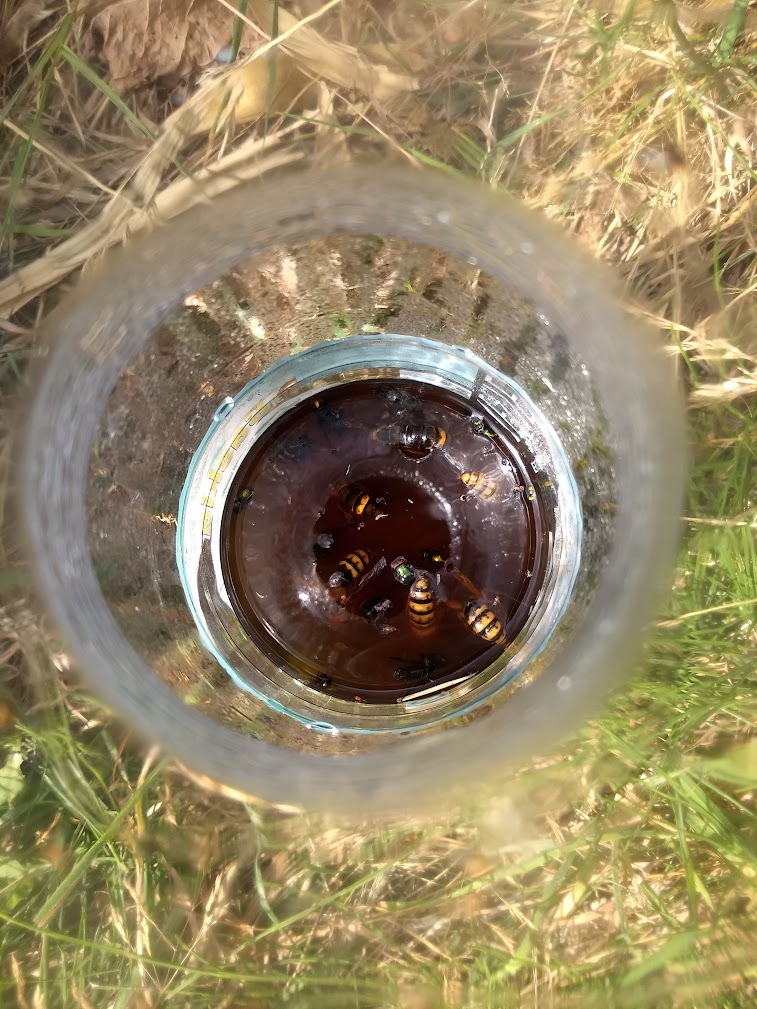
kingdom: Animalia
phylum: Arthropoda
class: Insecta
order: Hymenoptera
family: Vespidae
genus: Vespa
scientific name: Vespa velutina
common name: Asian hornet
